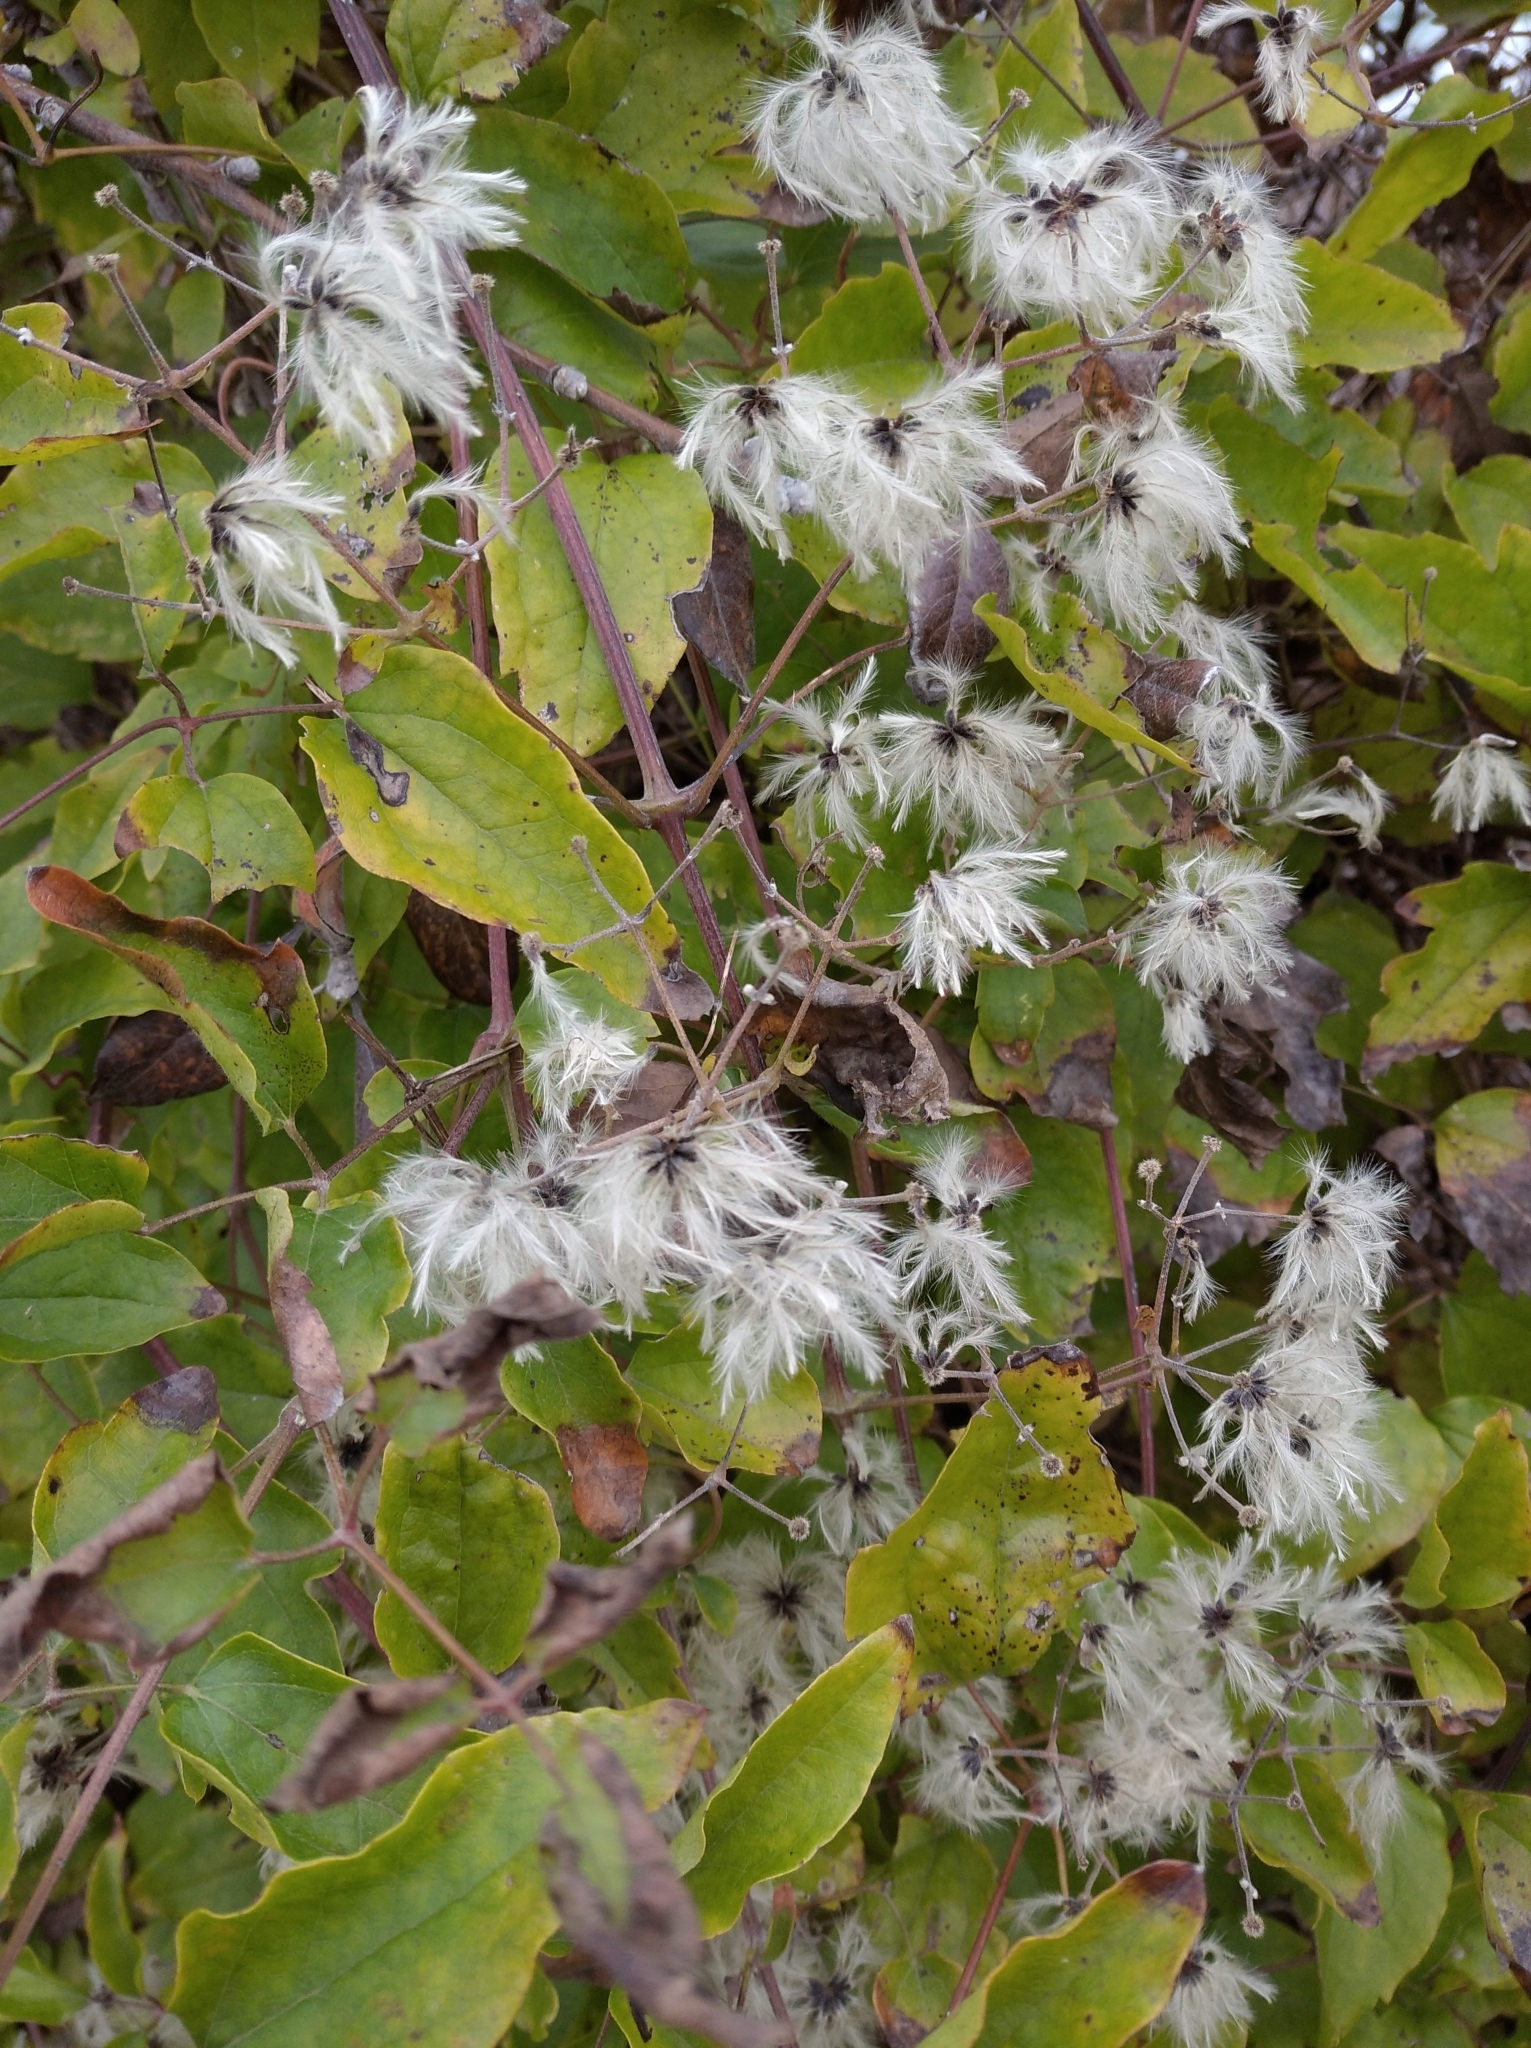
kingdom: Plantae
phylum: Tracheophyta
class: Magnoliopsida
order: Ranunculales
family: Ranunculaceae
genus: Clematis
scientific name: Clematis vitalba
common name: Evergreen clematis
